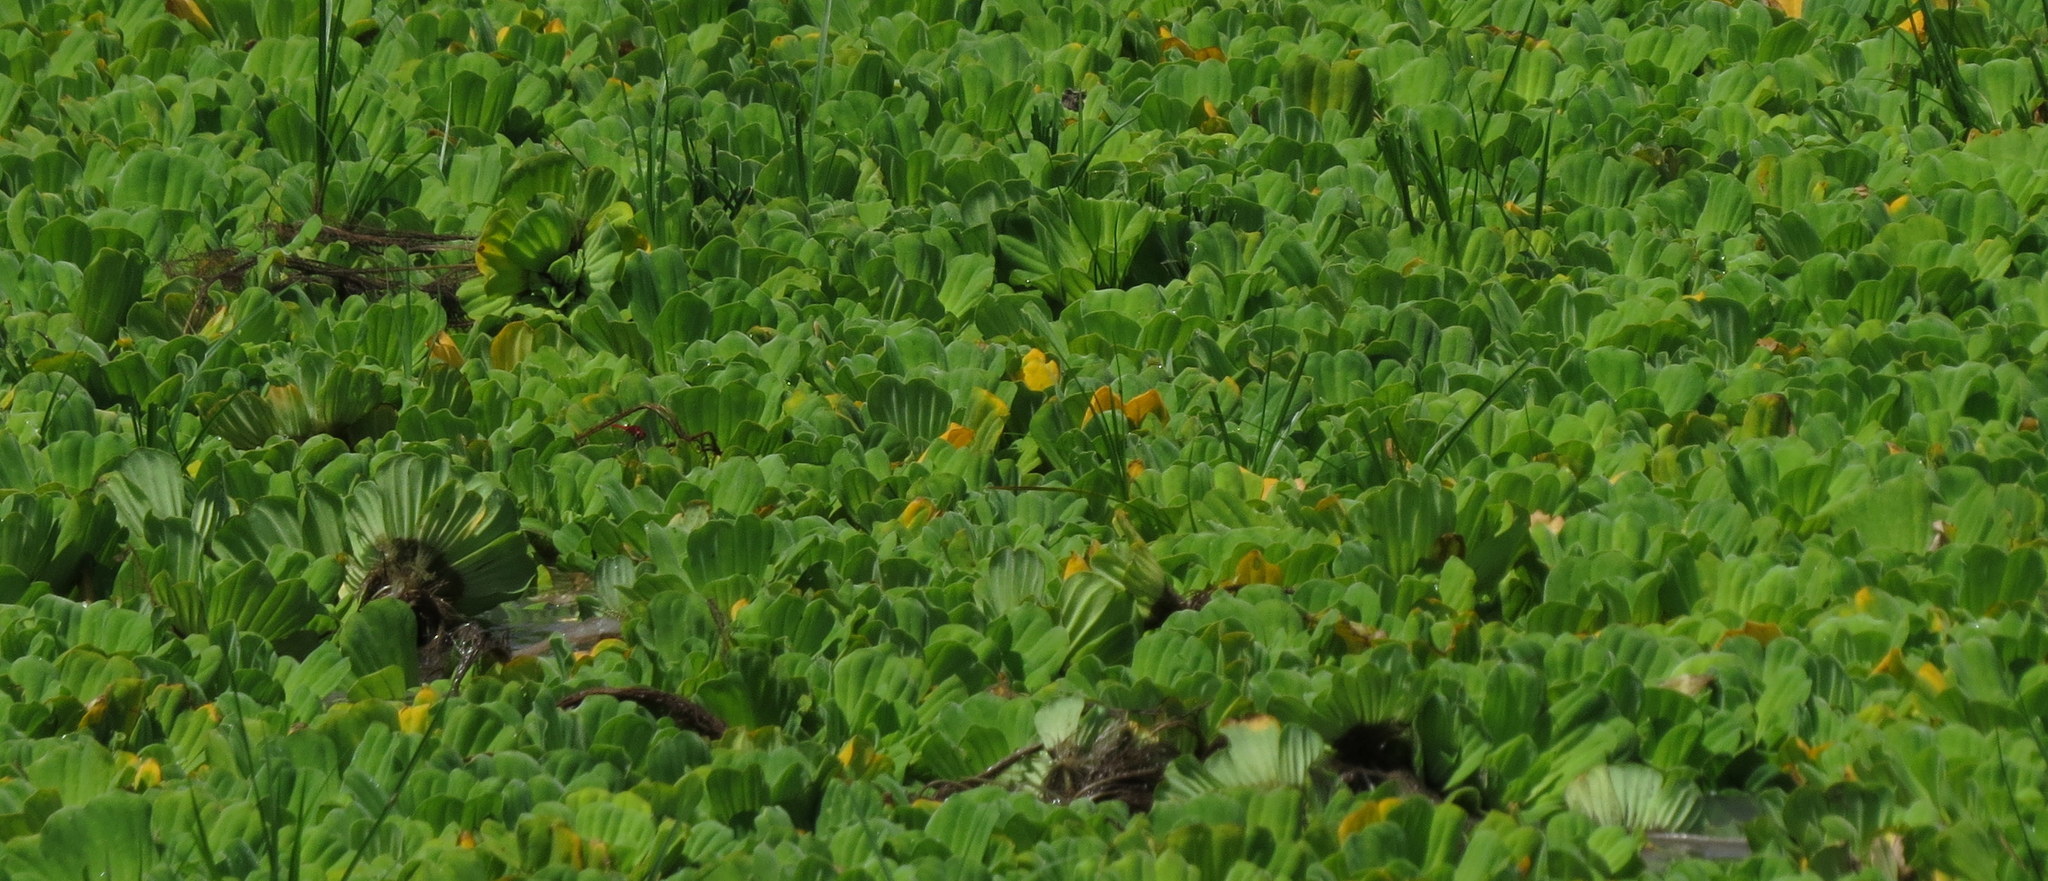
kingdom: Plantae
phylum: Tracheophyta
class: Liliopsida
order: Alismatales
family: Araceae
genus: Pistia
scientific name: Pistia stratiotes
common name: Water lettuce
